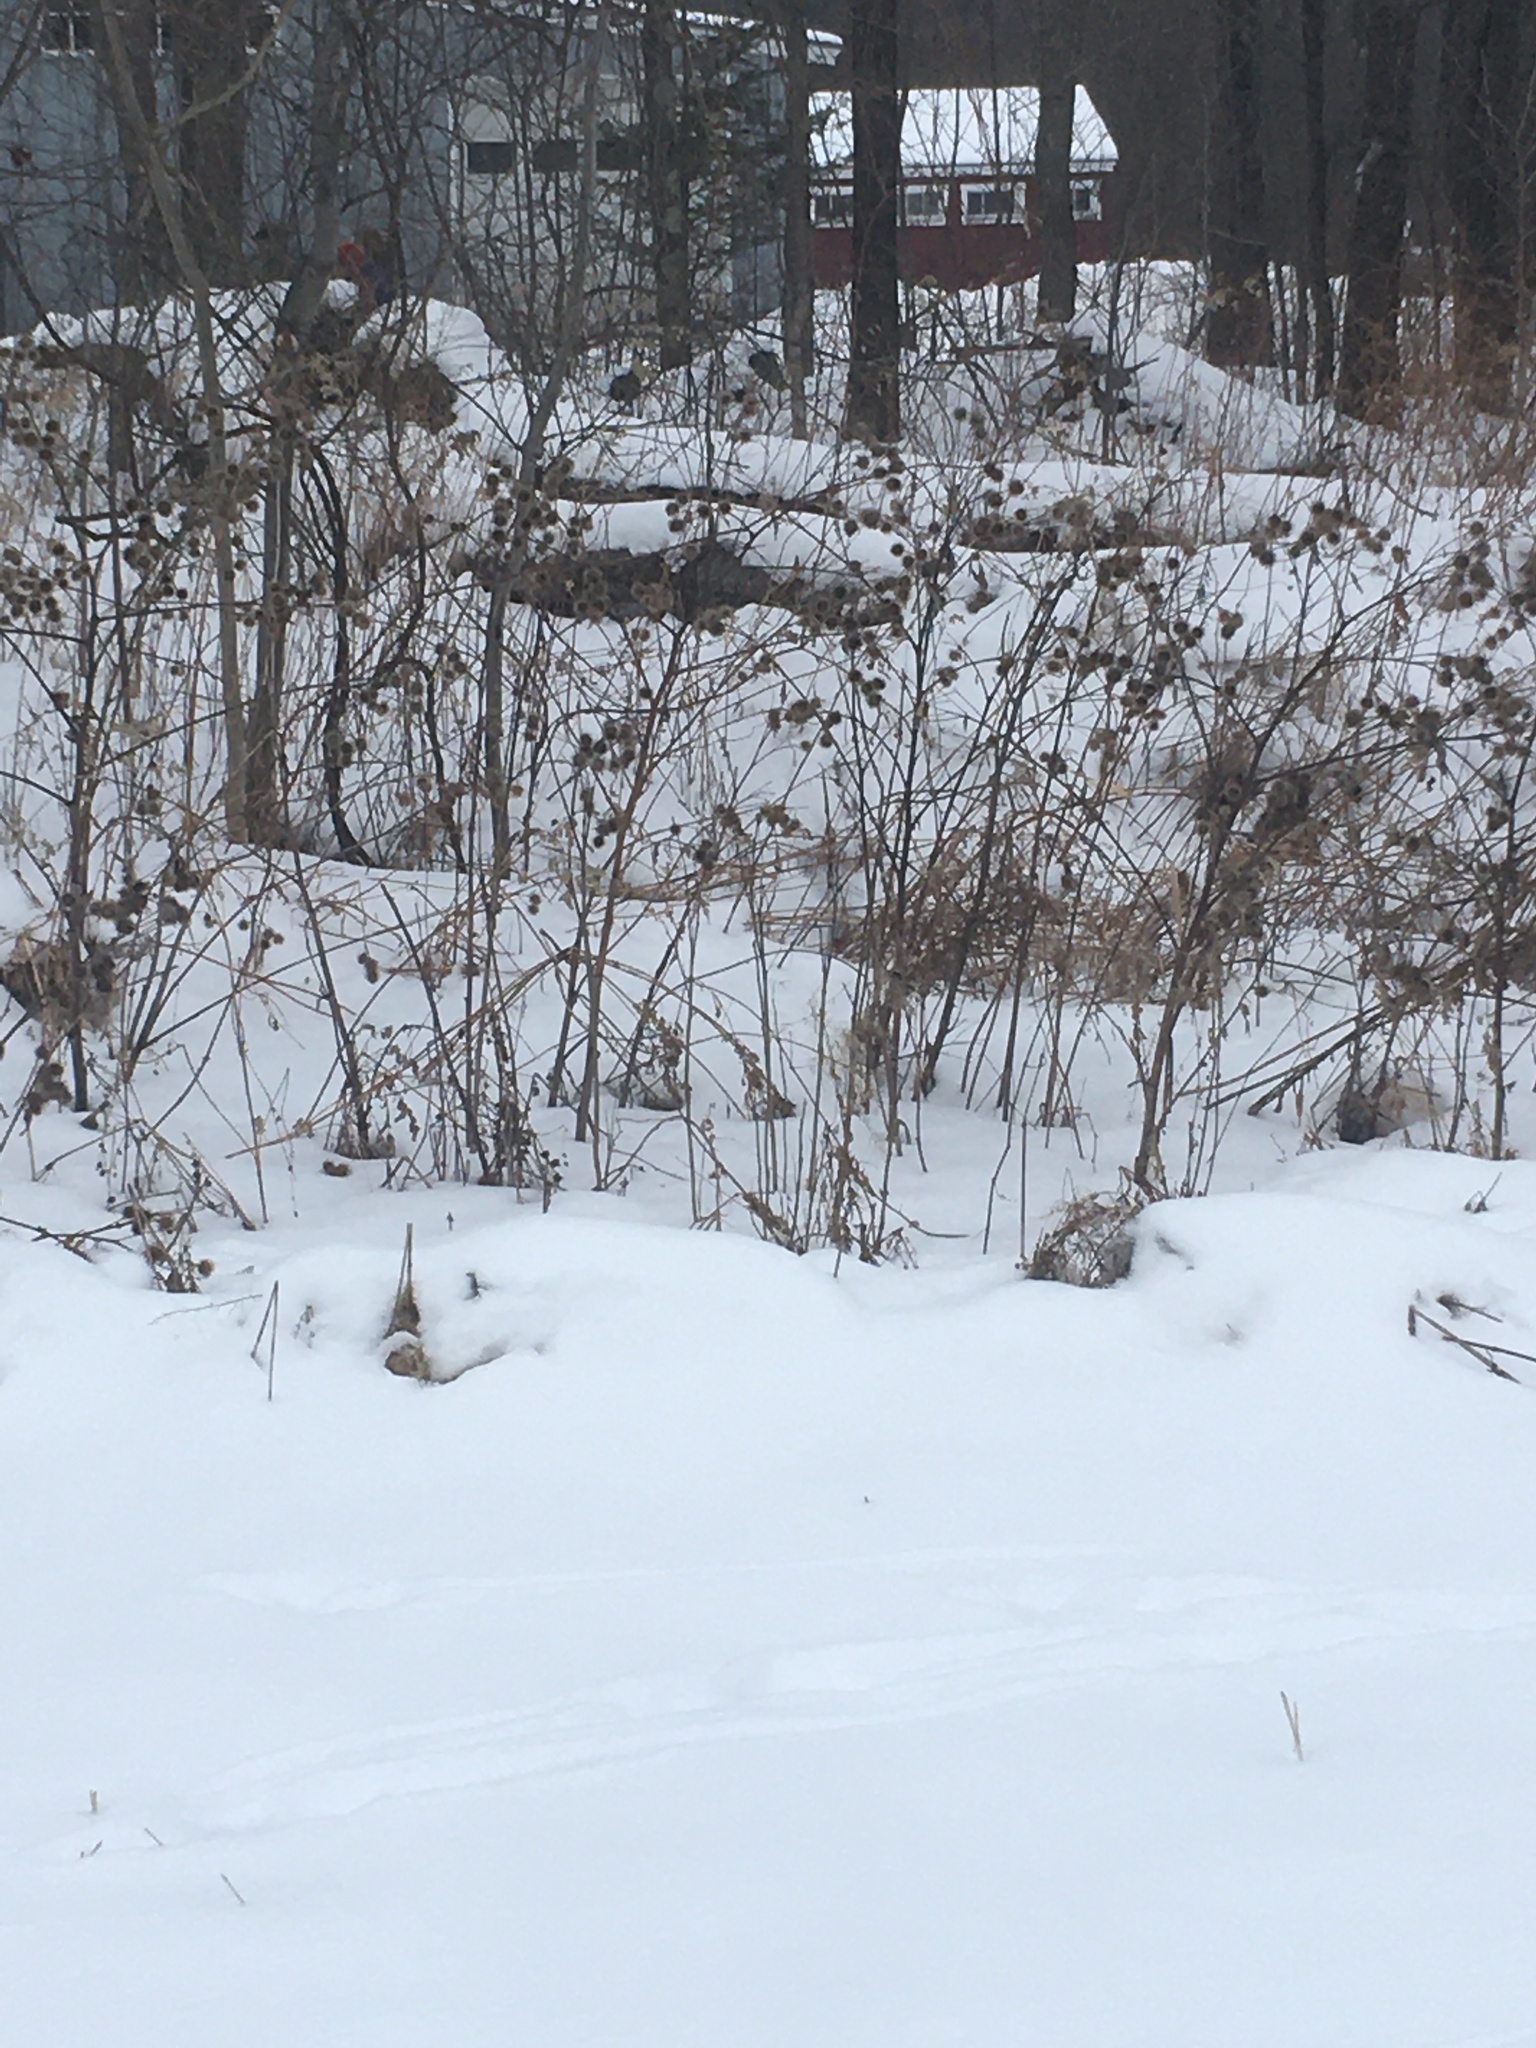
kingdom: Plantae
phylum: Tracheophyta
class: Magnoliopsida
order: Asterales
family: Asteraceae
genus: Arctium
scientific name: Arctium lappa
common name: Greater burdock
